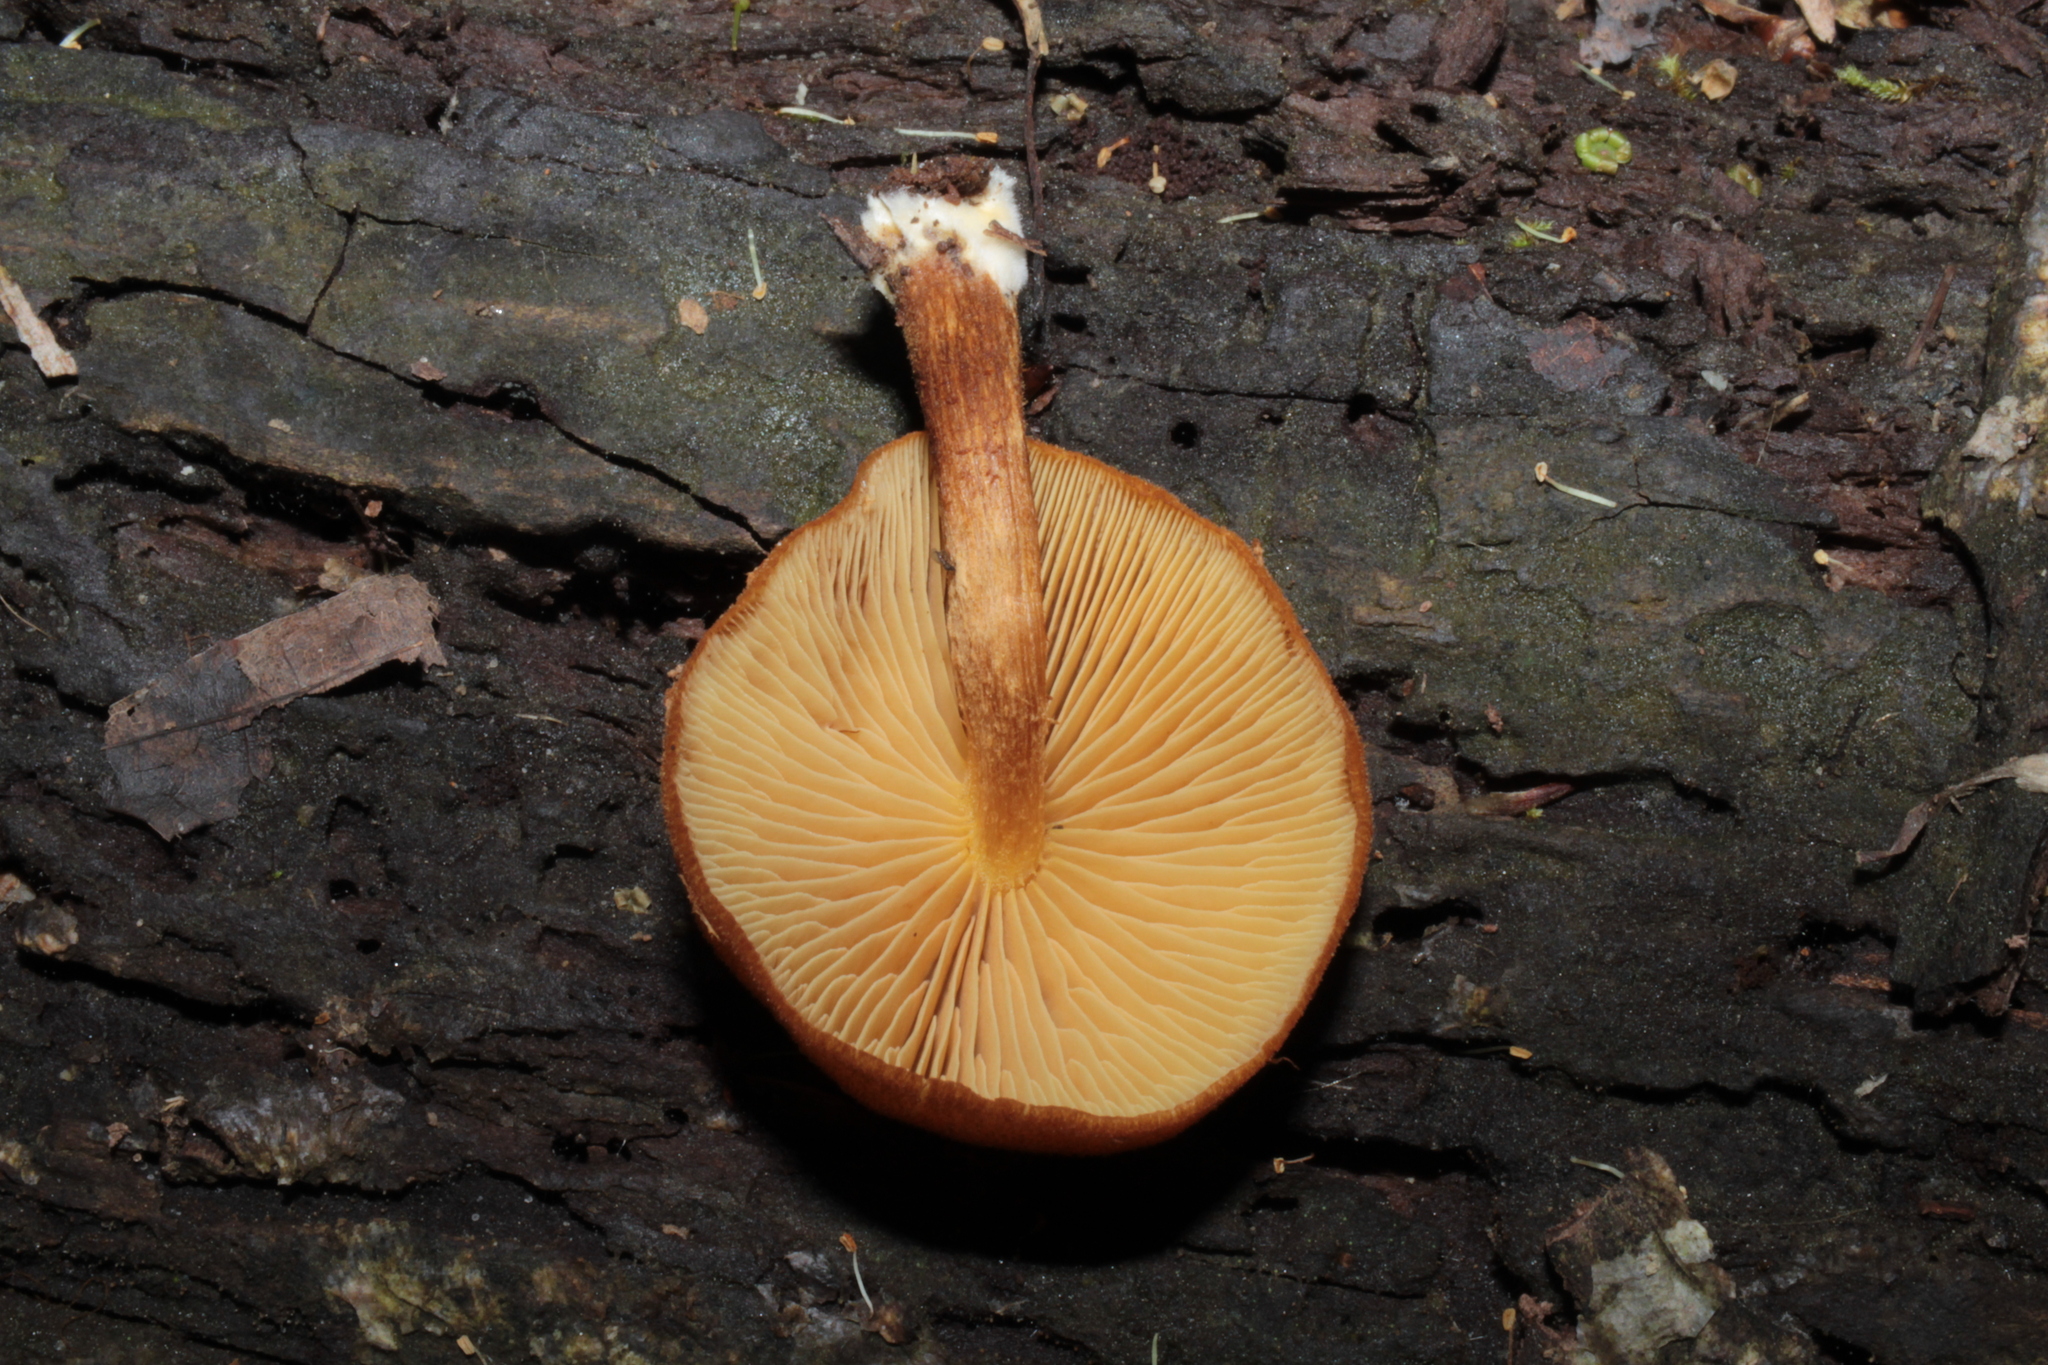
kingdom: Fungi
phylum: Basidiomycota
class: Agaricomycetes
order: Agaricales
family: Tubariaceae
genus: Phaeomarasmius
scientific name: Phaeomarasmius proximans
